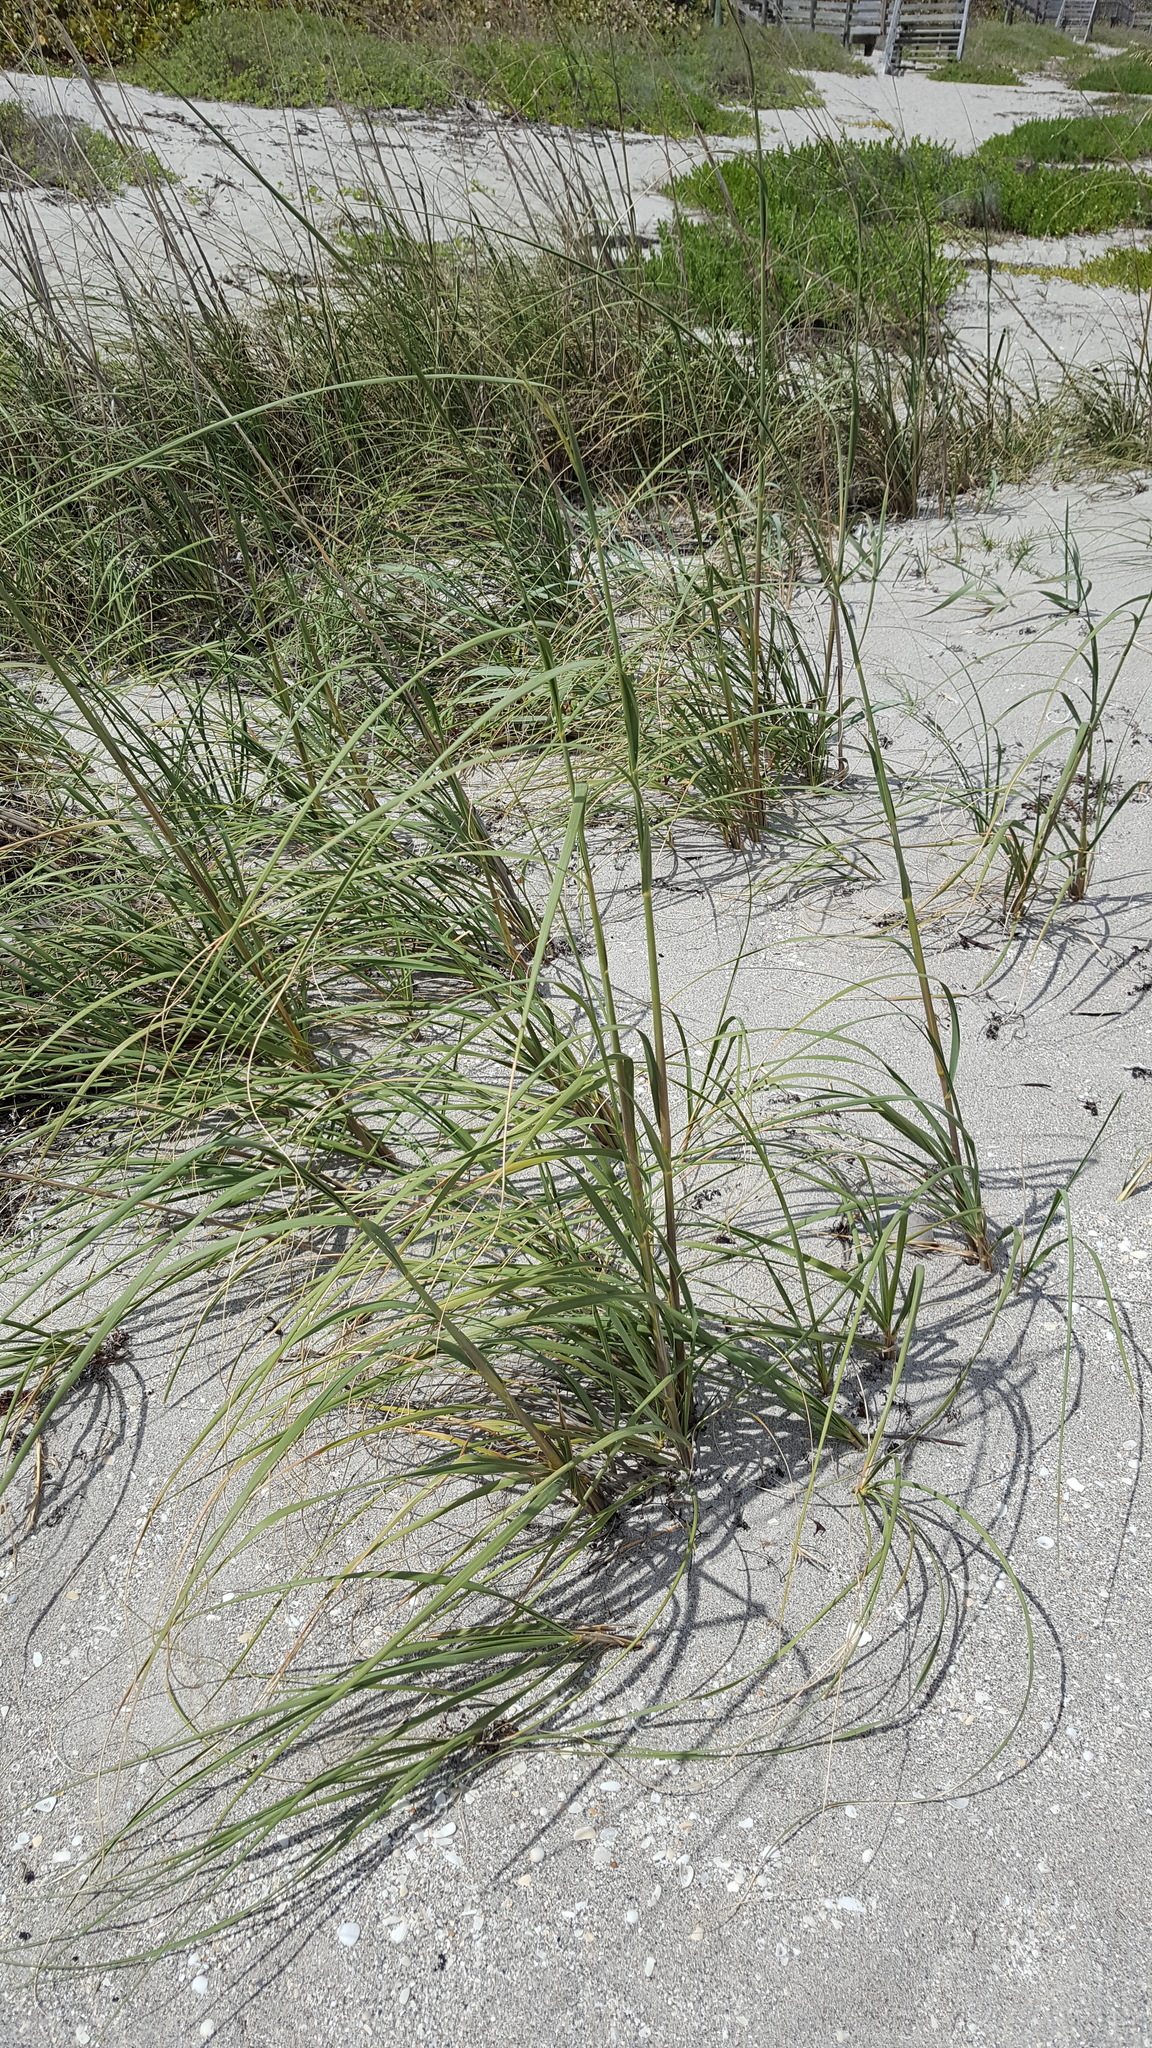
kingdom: Plantae
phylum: Tracheophyta
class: Liliopsida
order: Poales
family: Poaceae
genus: Uniola
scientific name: Uniola paniculata
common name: Seaside-oats
